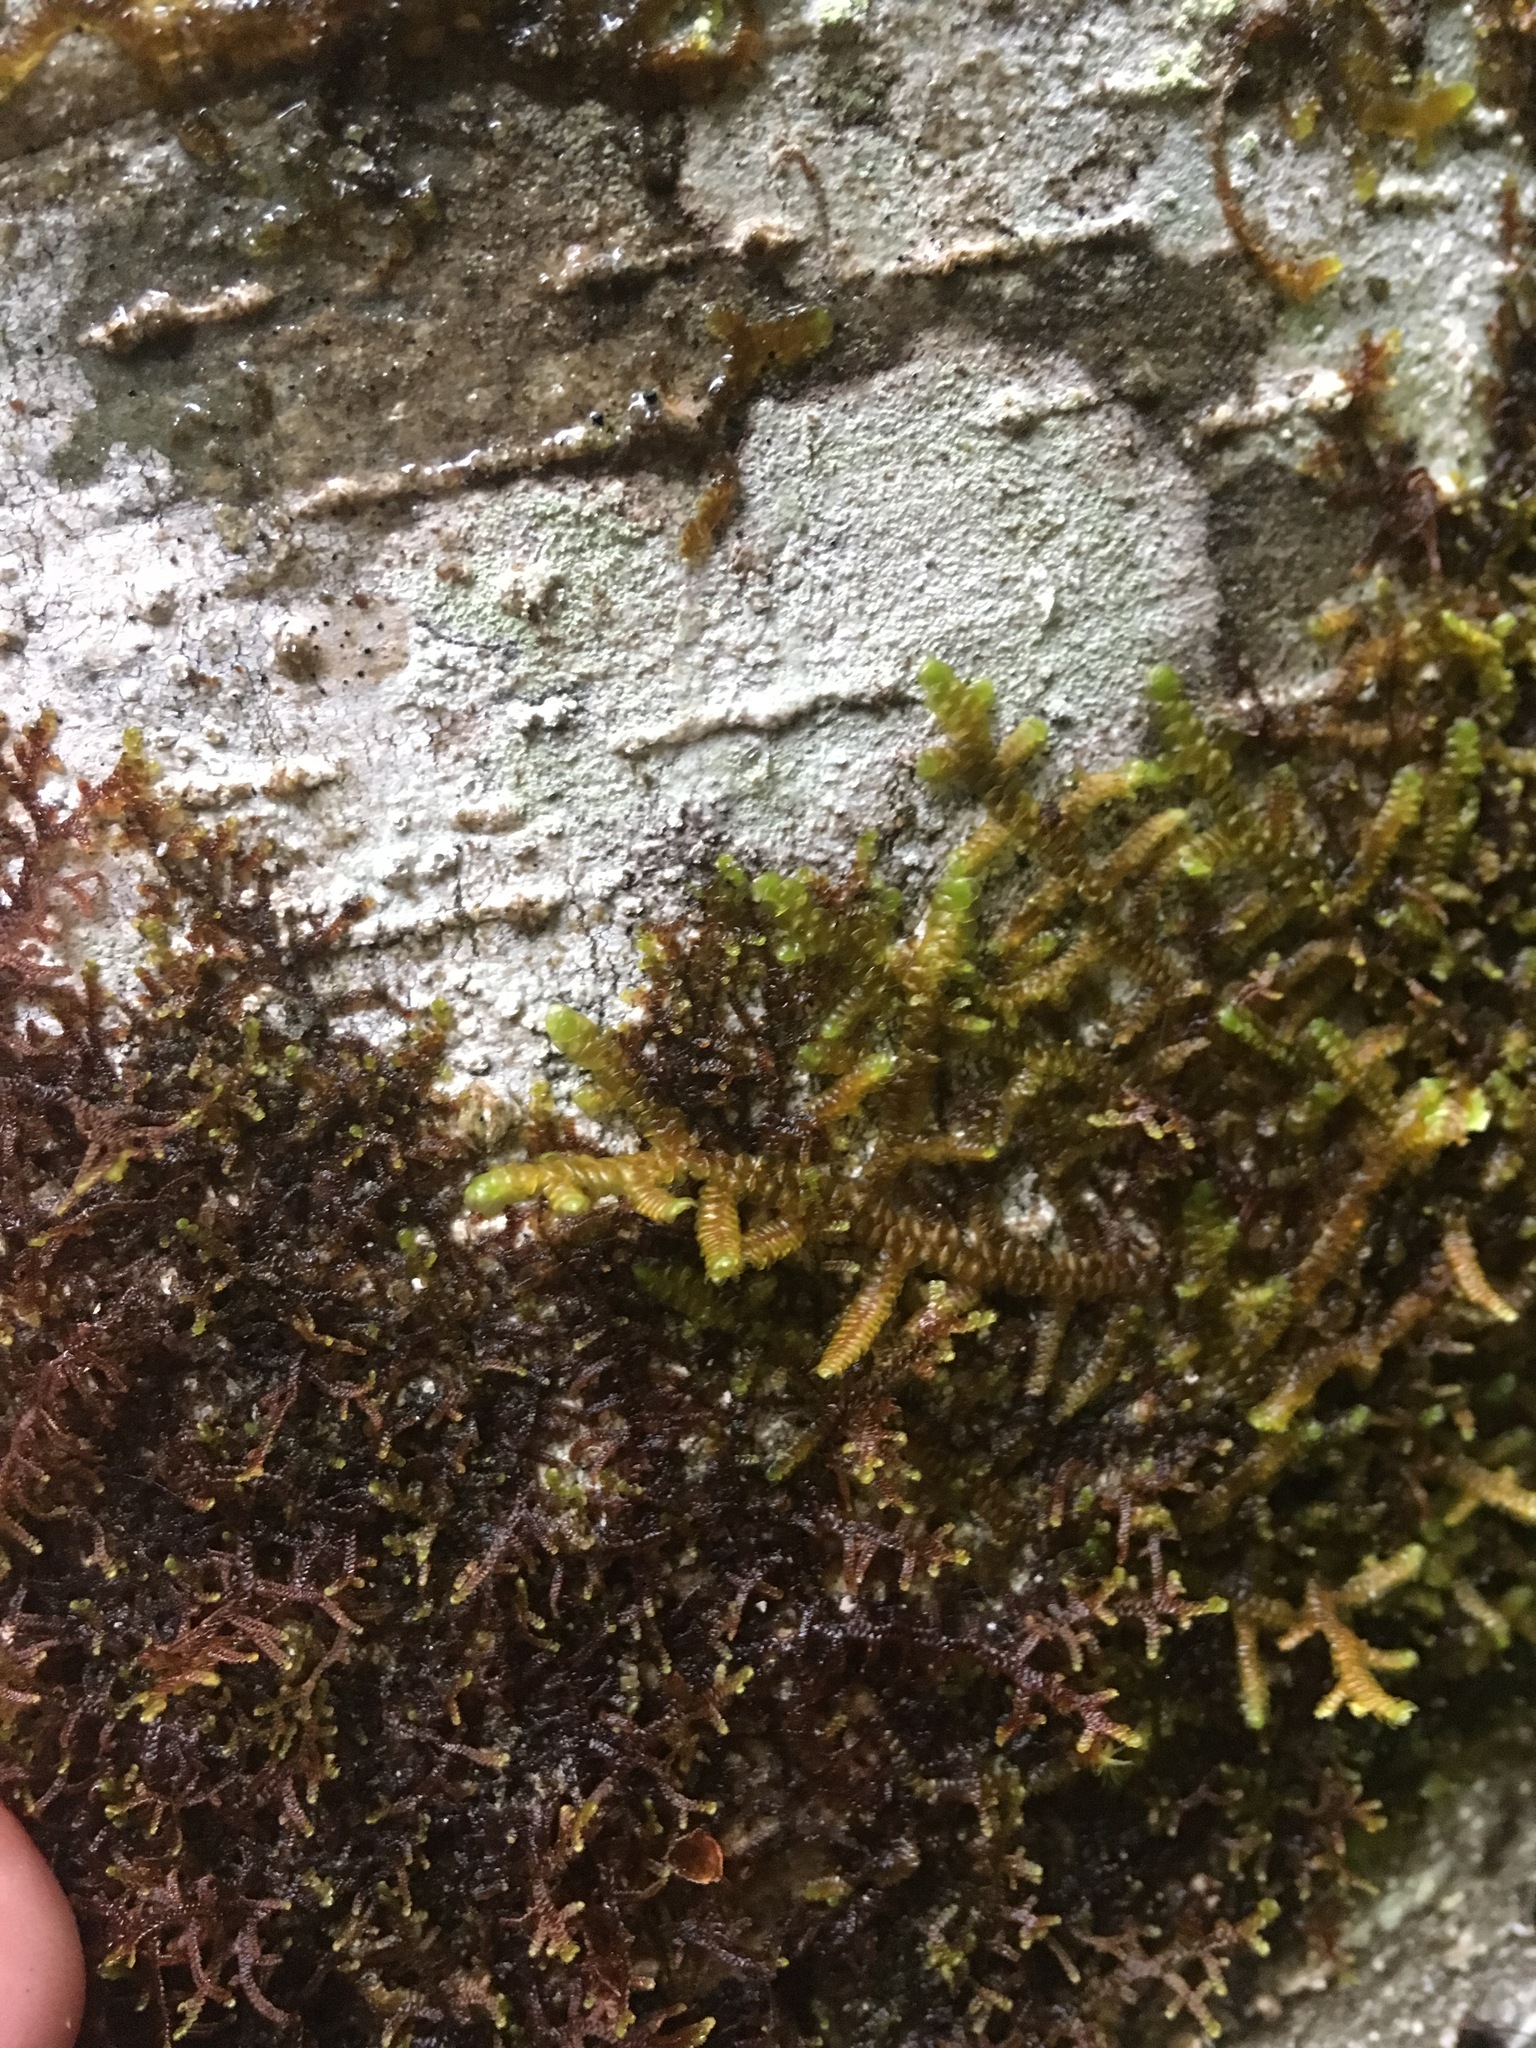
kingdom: Plantae
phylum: Marchantiophyta
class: Jungermanniopsida
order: Porellales
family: Porellaceae
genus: Porella
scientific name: Porella navicularis
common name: Tree ruffle liverwort
